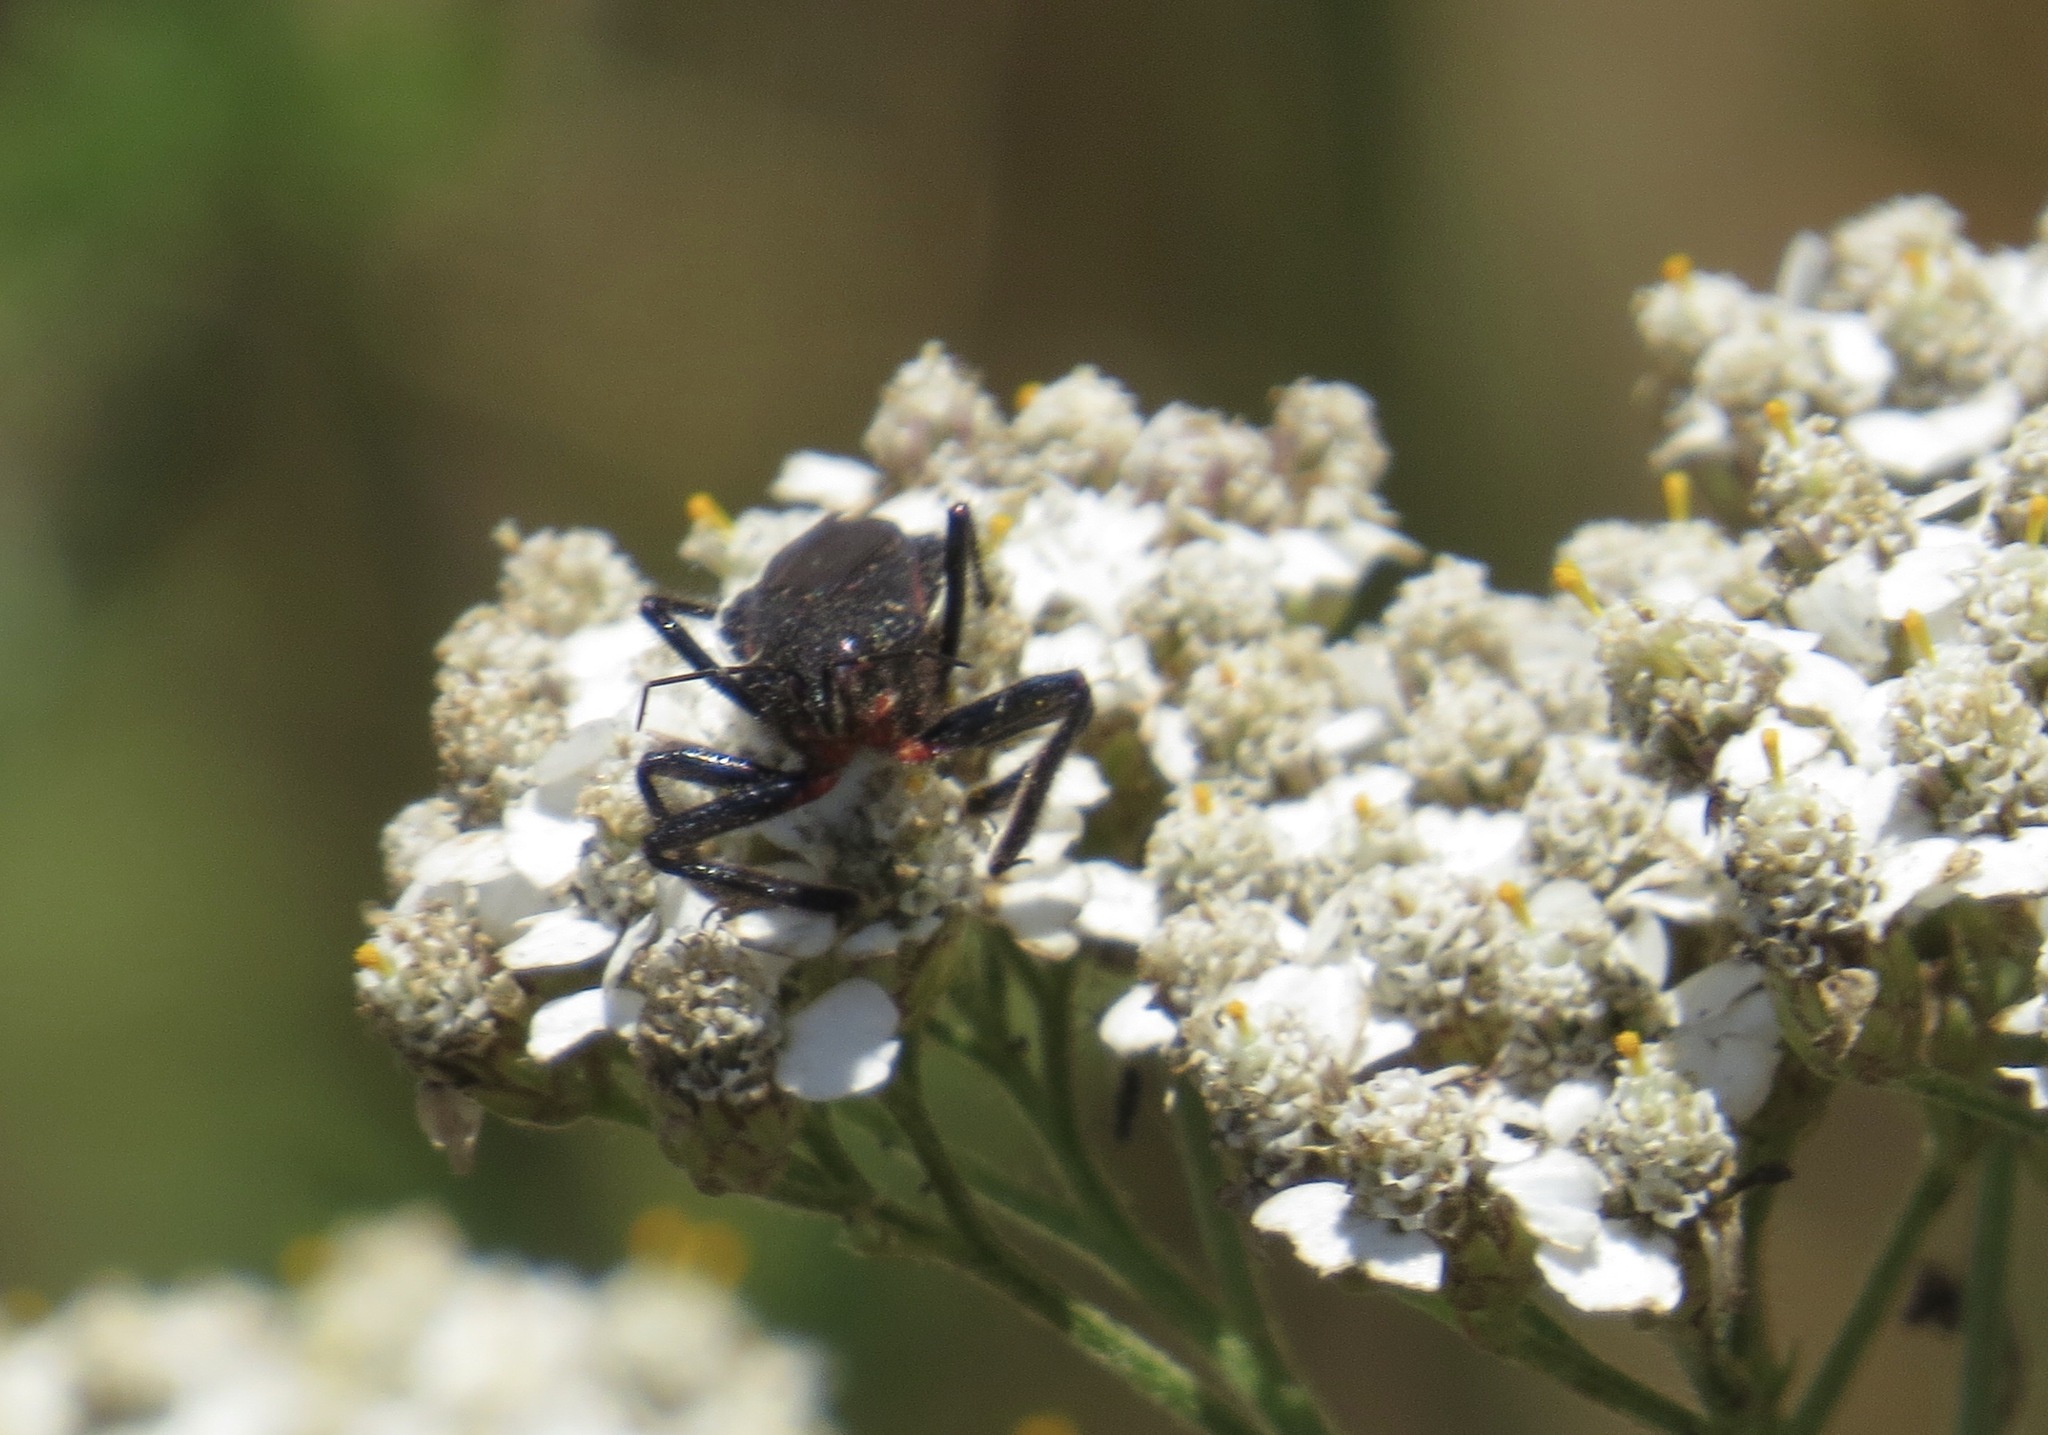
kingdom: Animalia
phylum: Arthropoda
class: Insecta
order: Hemiptera
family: Reduviidae
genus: Apiomerus
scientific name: Apiomerus californicus
